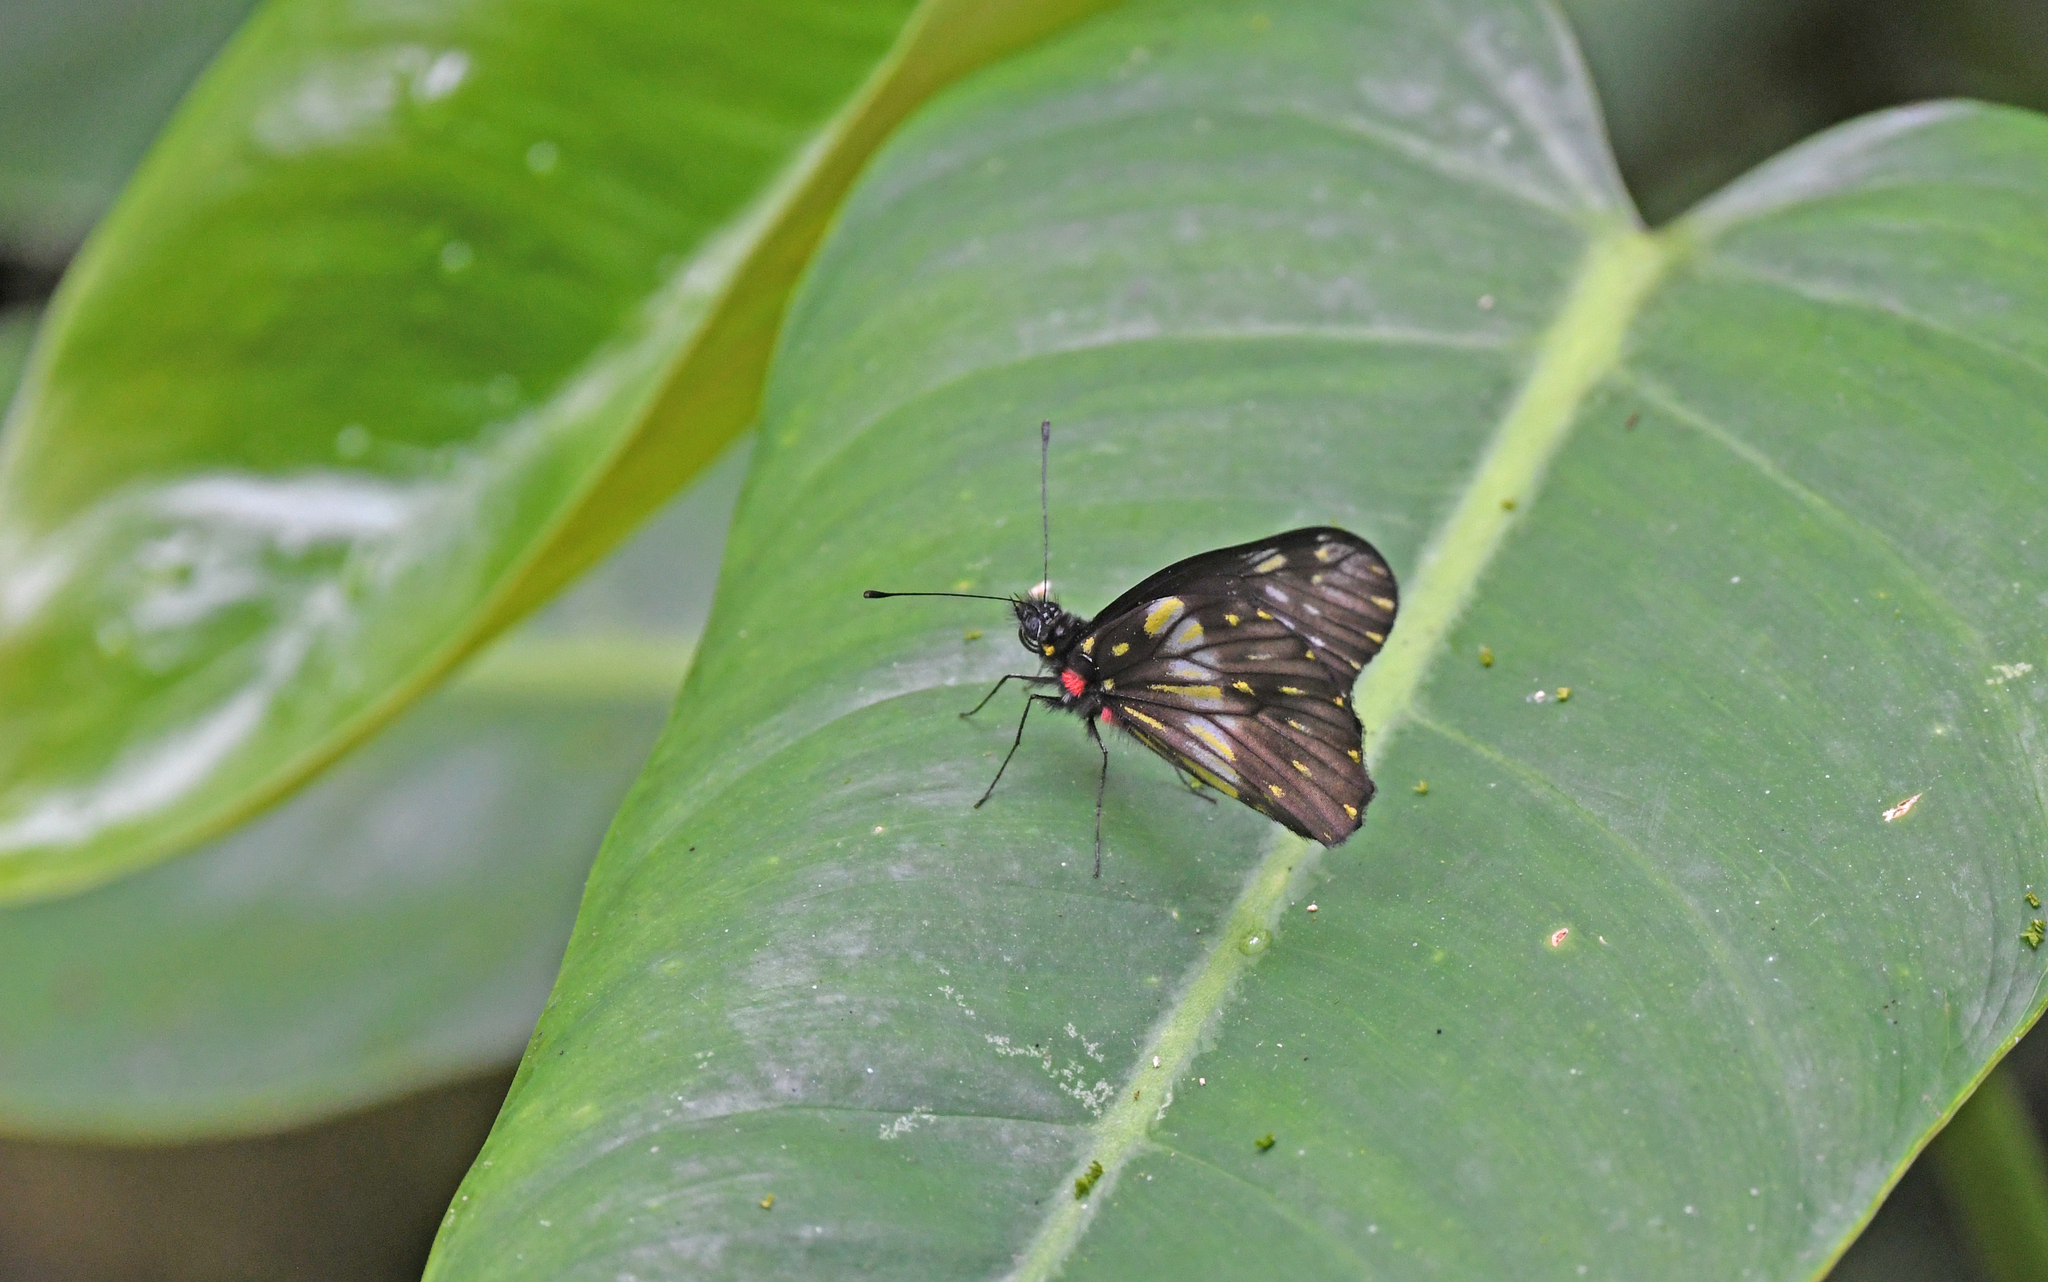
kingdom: Animalia
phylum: Arthropoda
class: Insecta
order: Lepidoptera
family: Pieridae
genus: Archonias
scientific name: Archonias flisa
